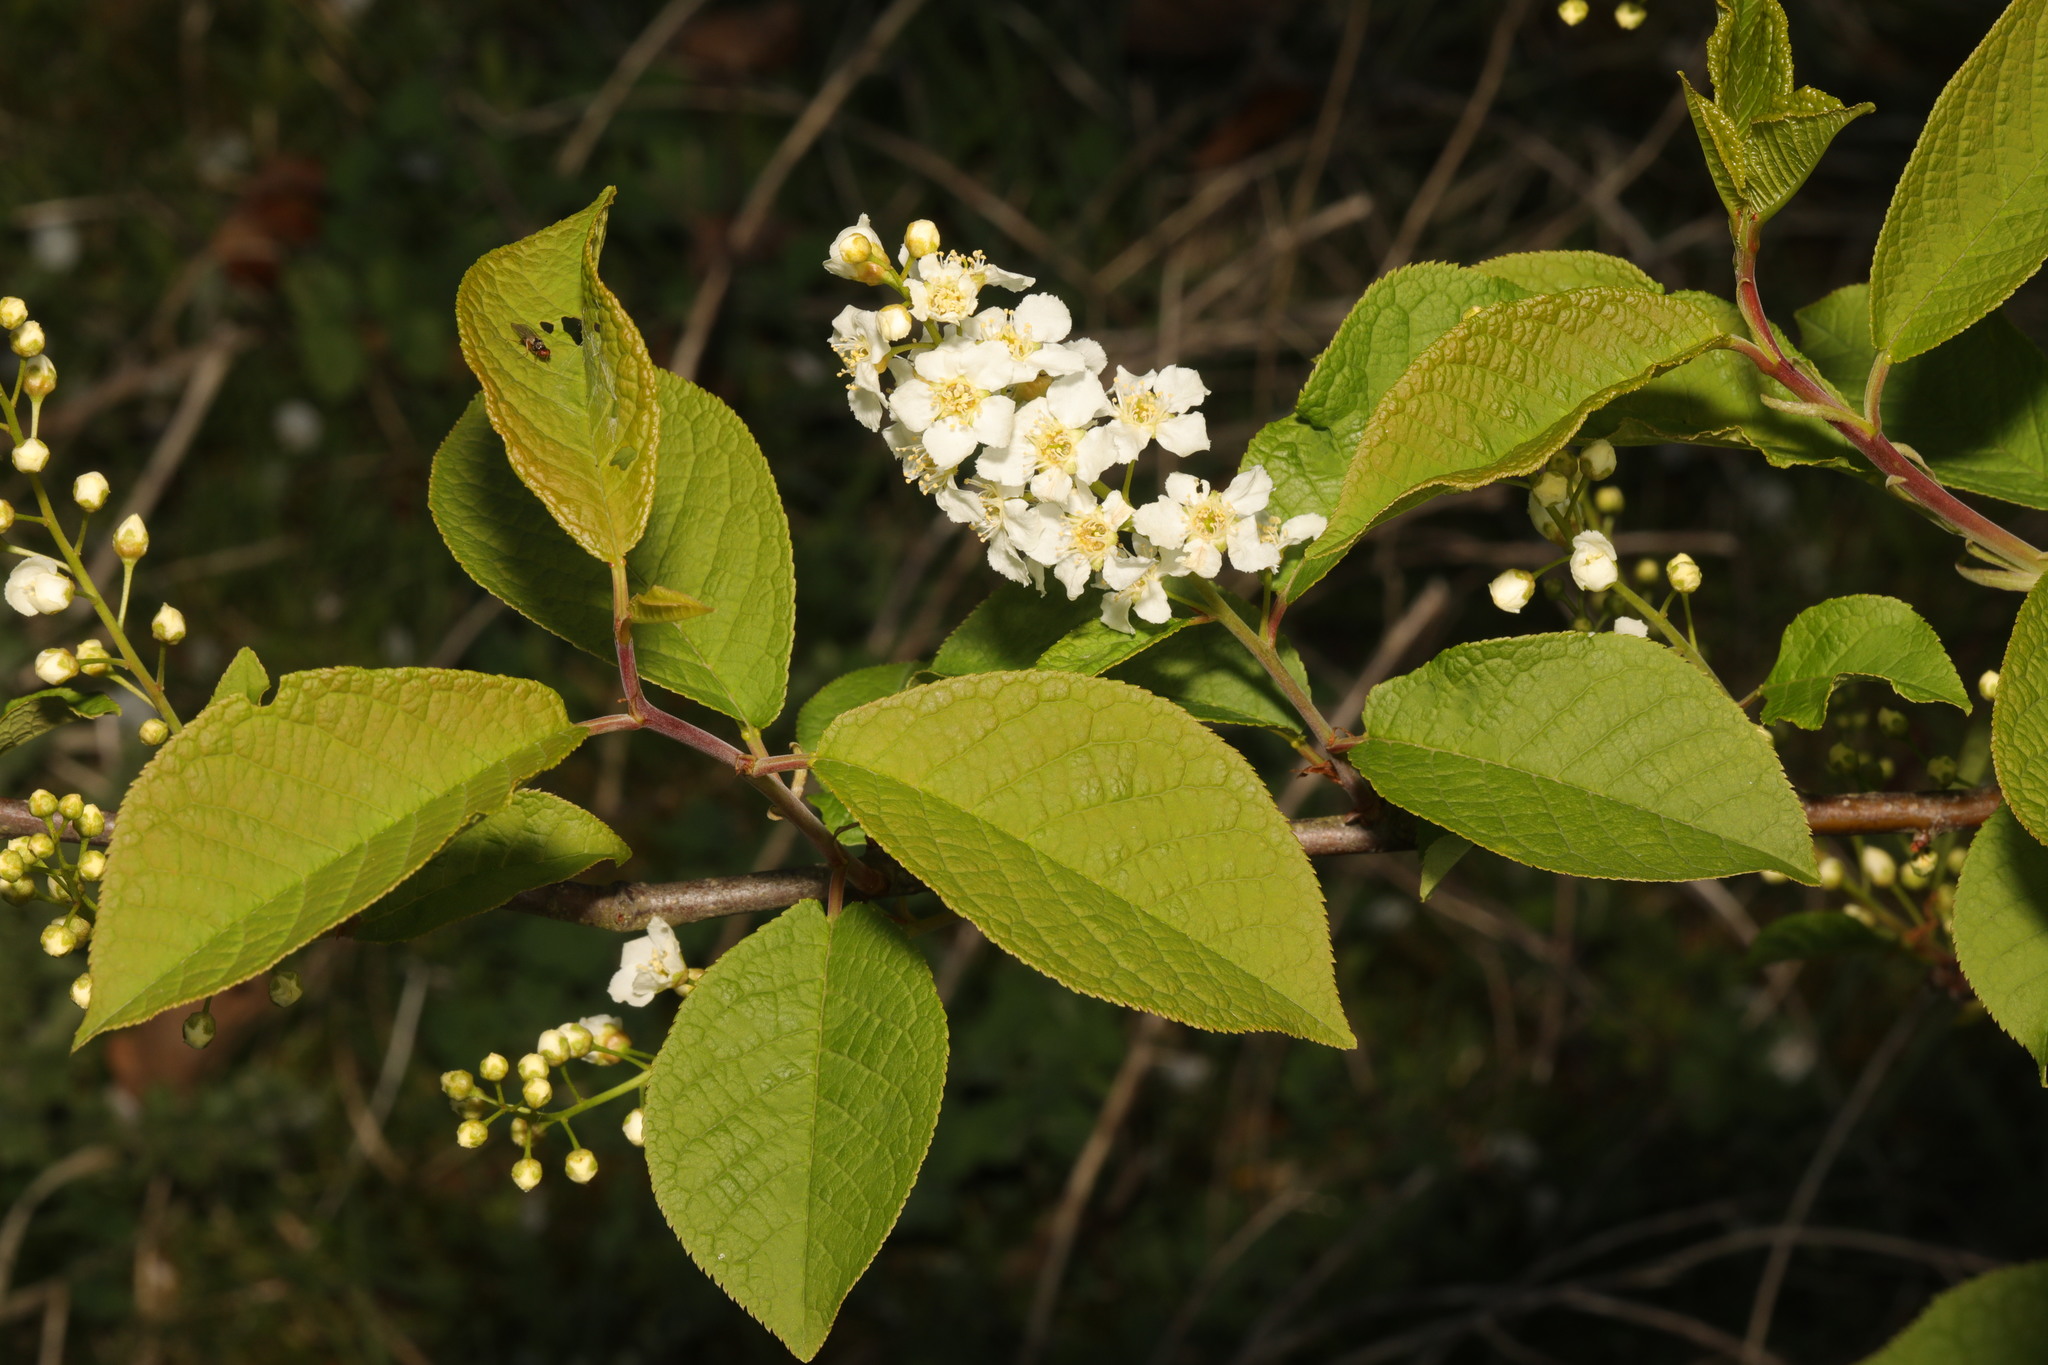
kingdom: Plantae
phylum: Tracheophyta
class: Magnoliopsida
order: Rosales
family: Rosaceae
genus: Prunus
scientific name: Prunus padus
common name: Bird cherry
